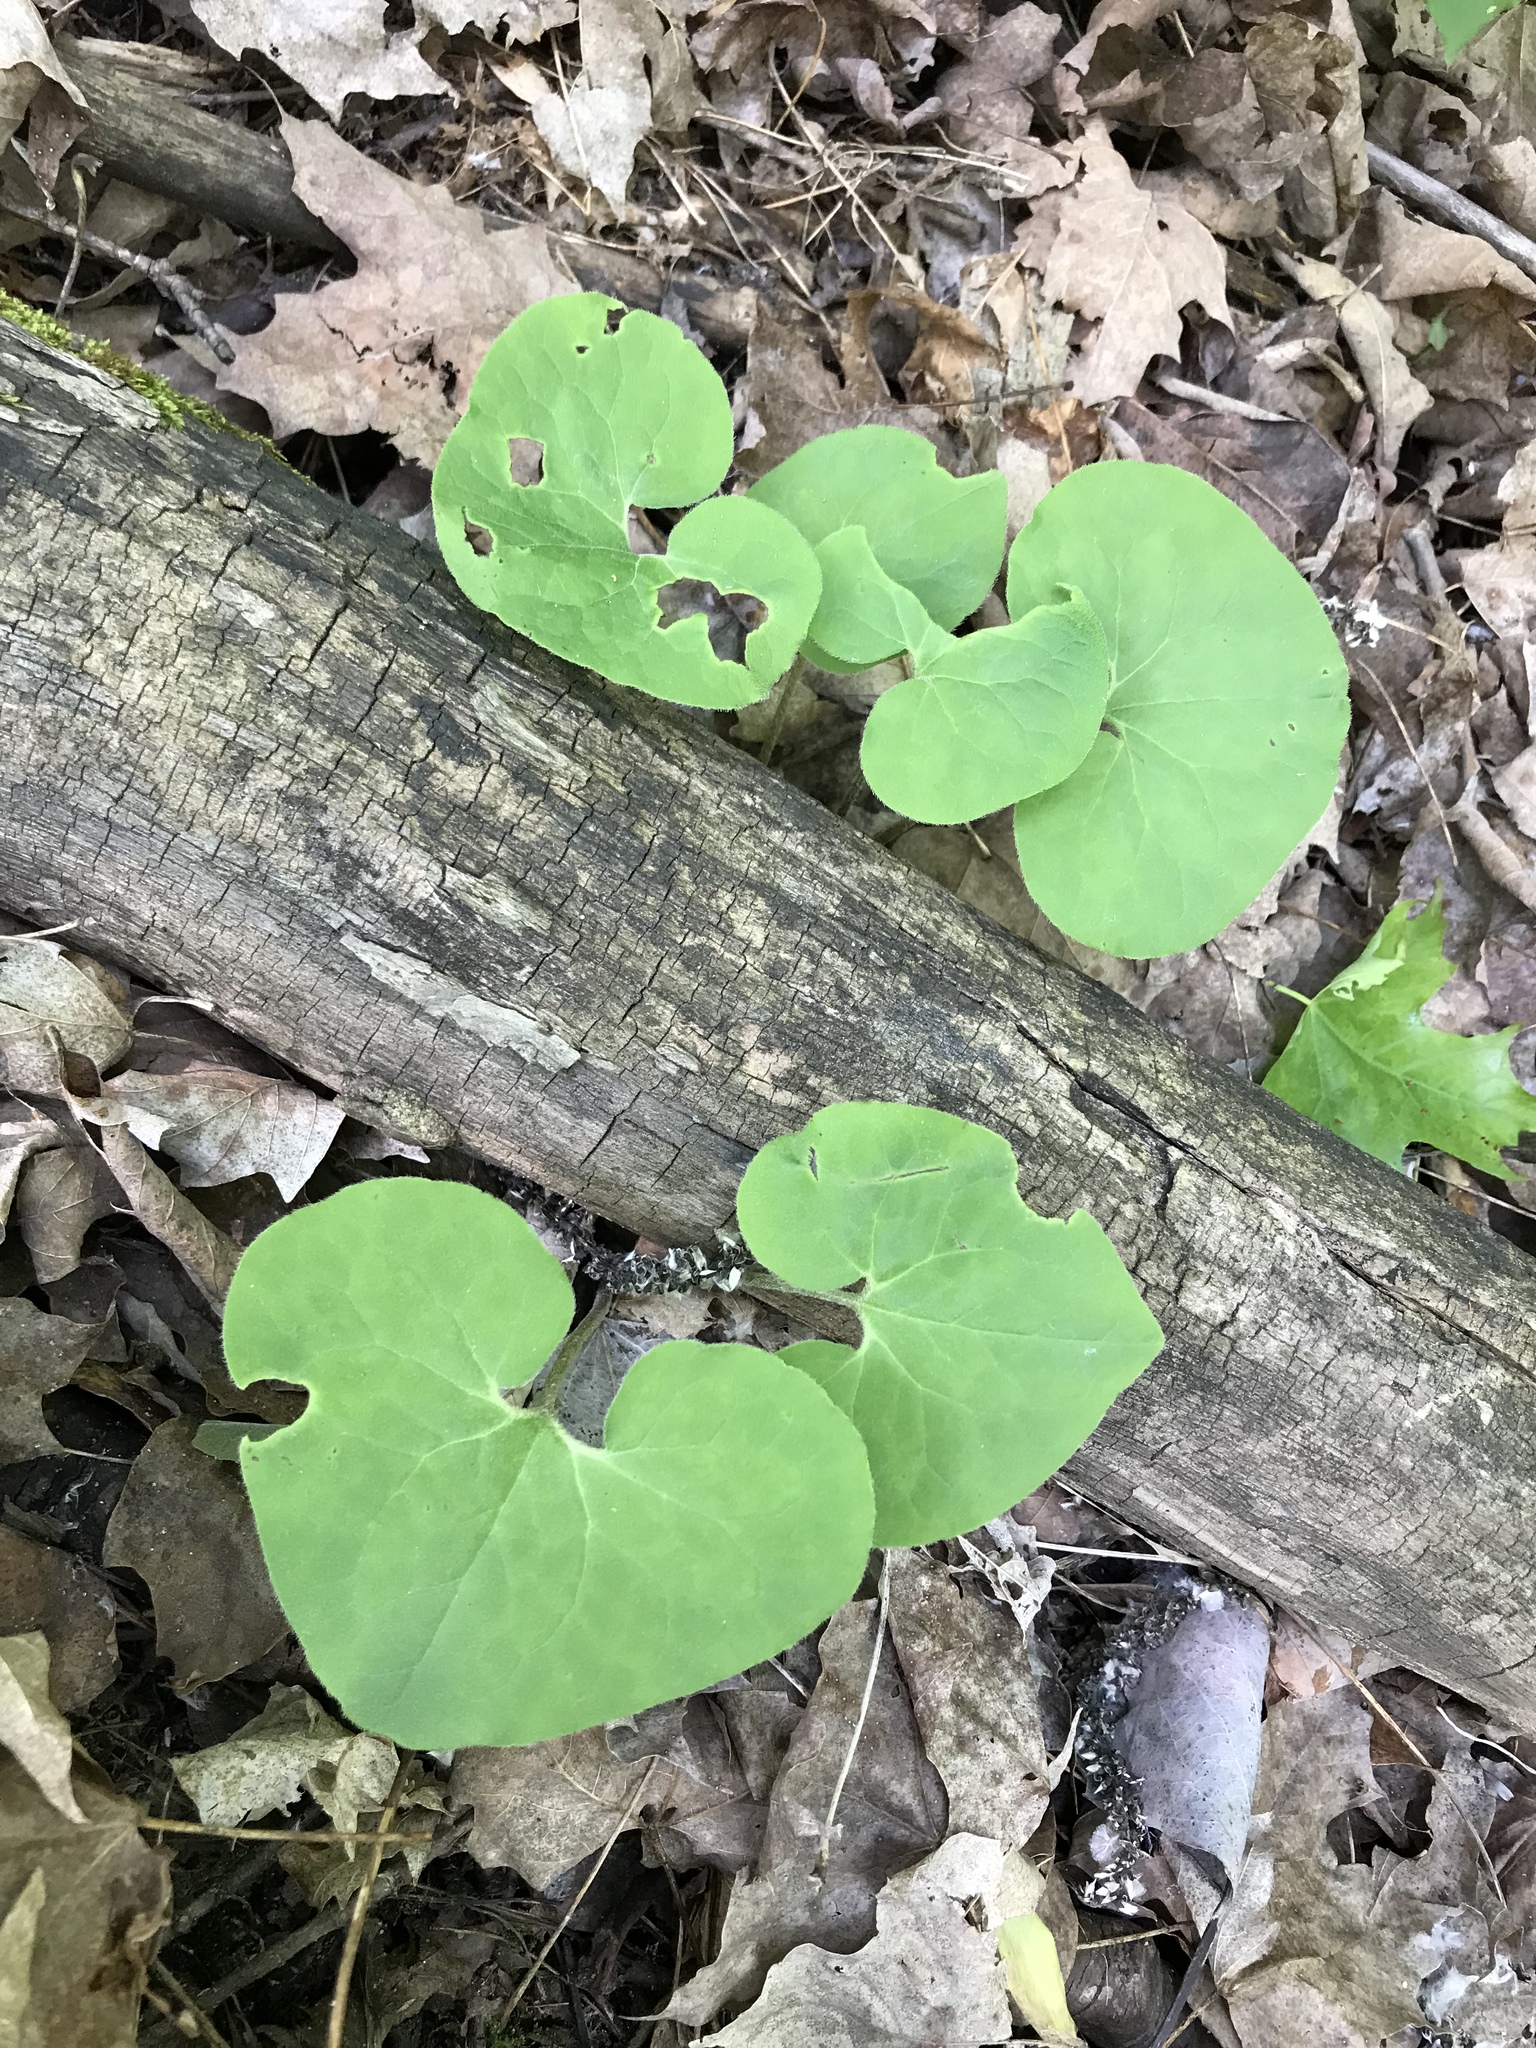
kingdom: Plantae
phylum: Tracheophyta
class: Magnoliopsida
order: Piperales
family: Aristolochiaceae
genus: Asarum
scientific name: Asarum canadense
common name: Wild ginger
